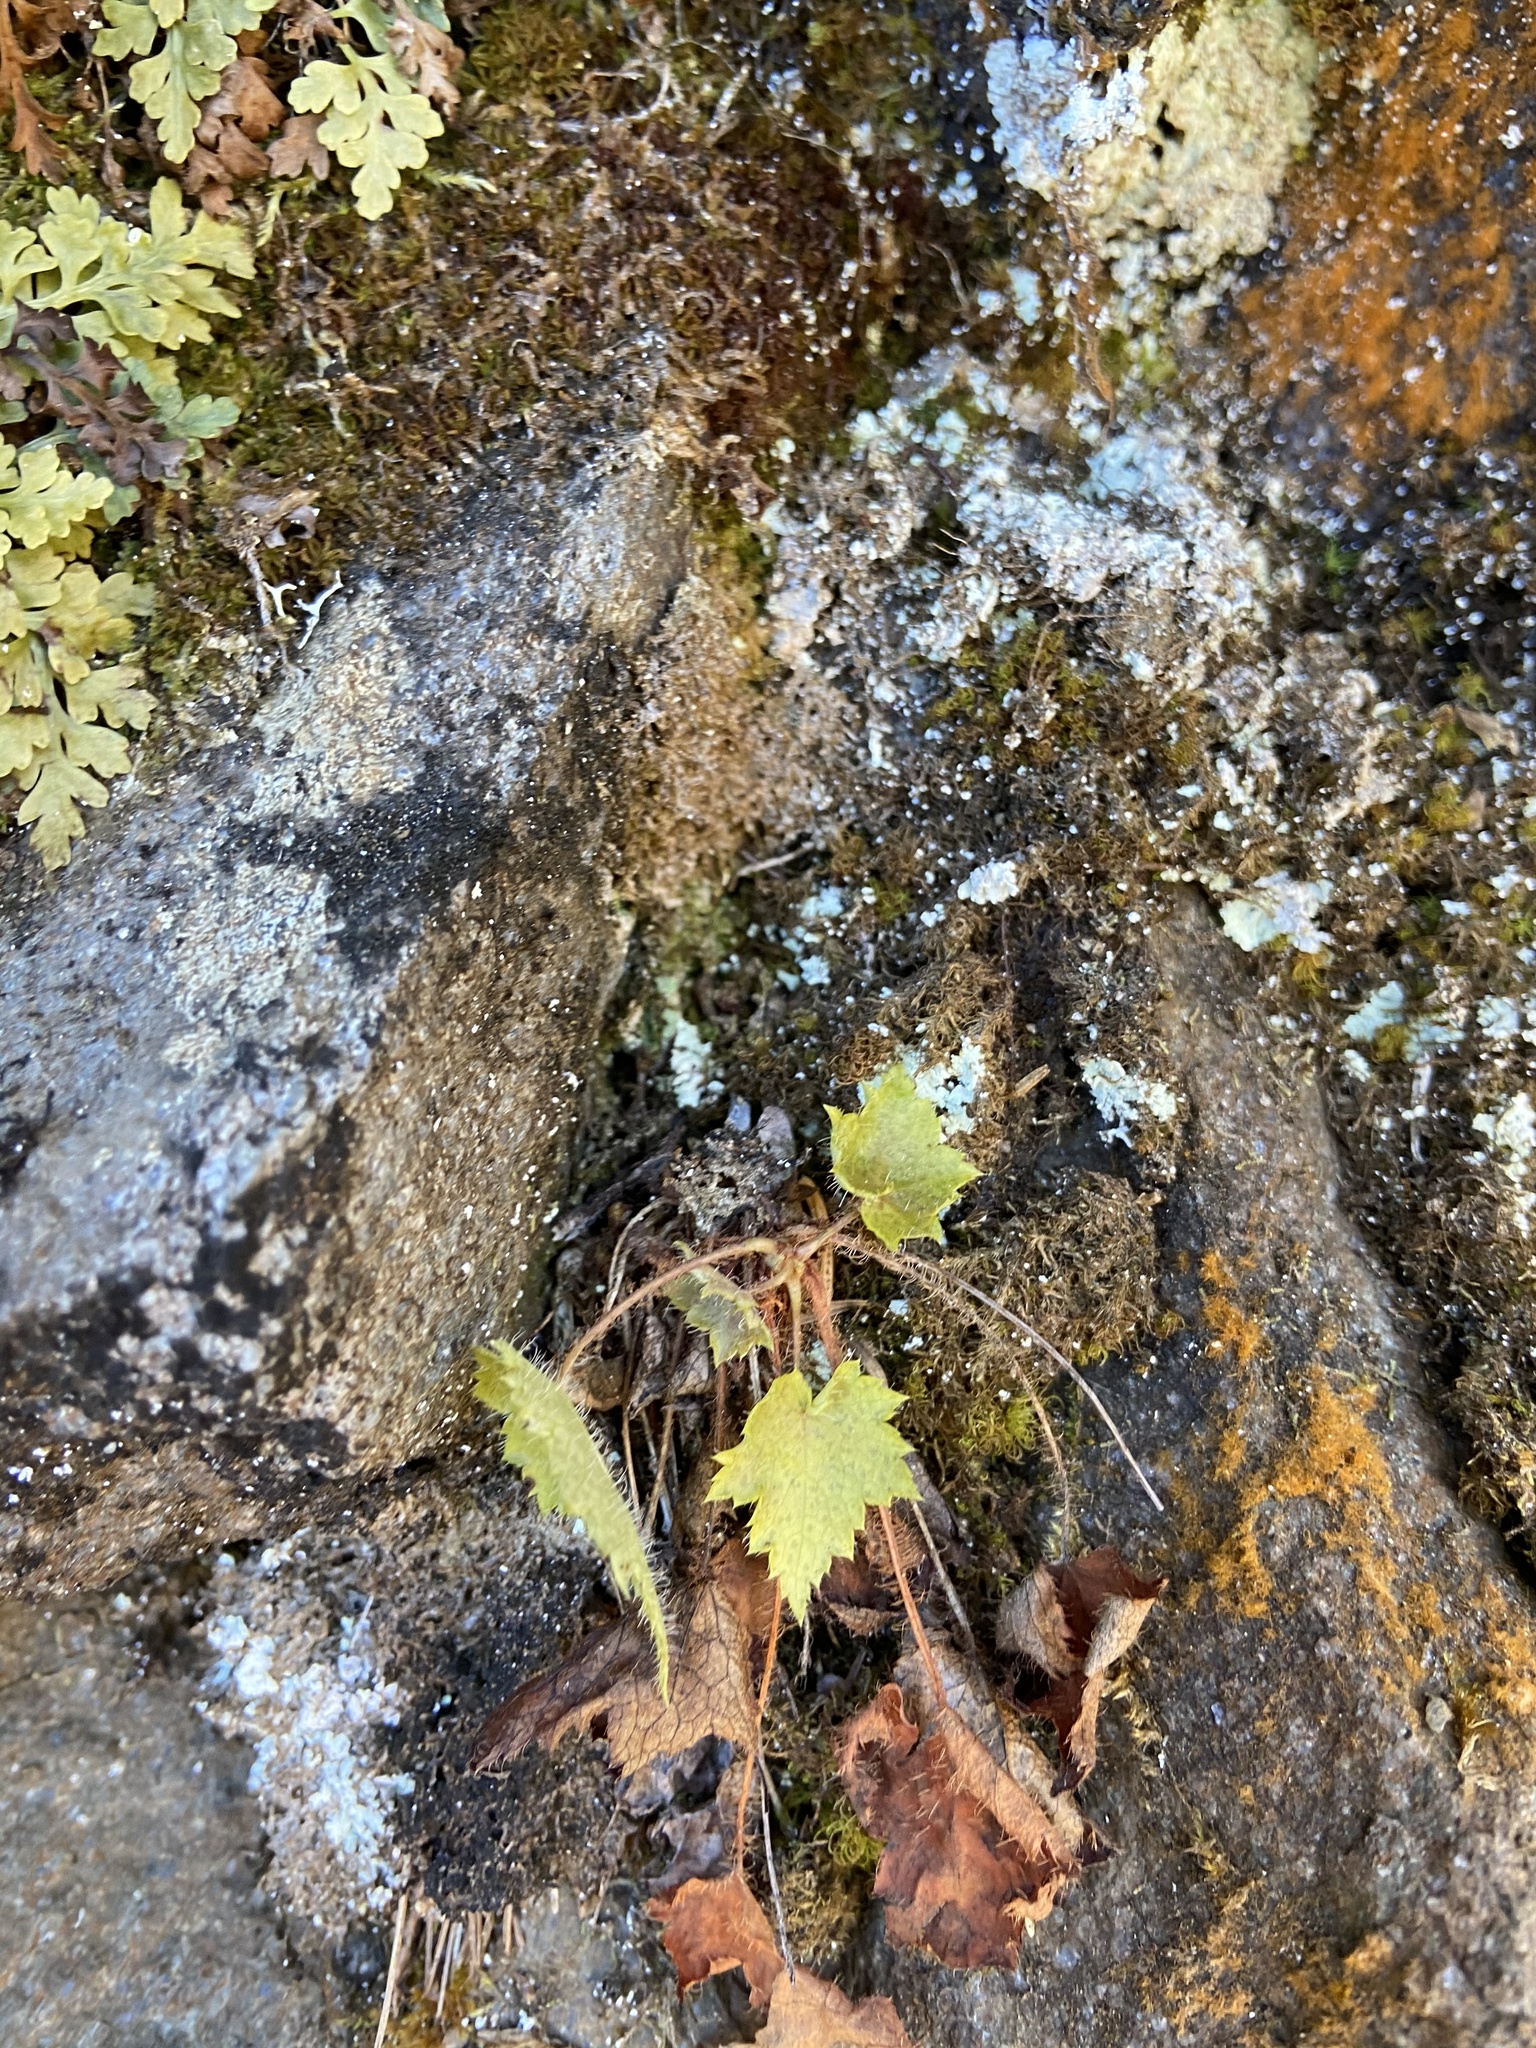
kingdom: Plantae
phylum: Tracheophyta
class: Magnoliopsida
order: Saxifragales
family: Saxifragaceae
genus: Heuchera
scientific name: Heuchera villosa
